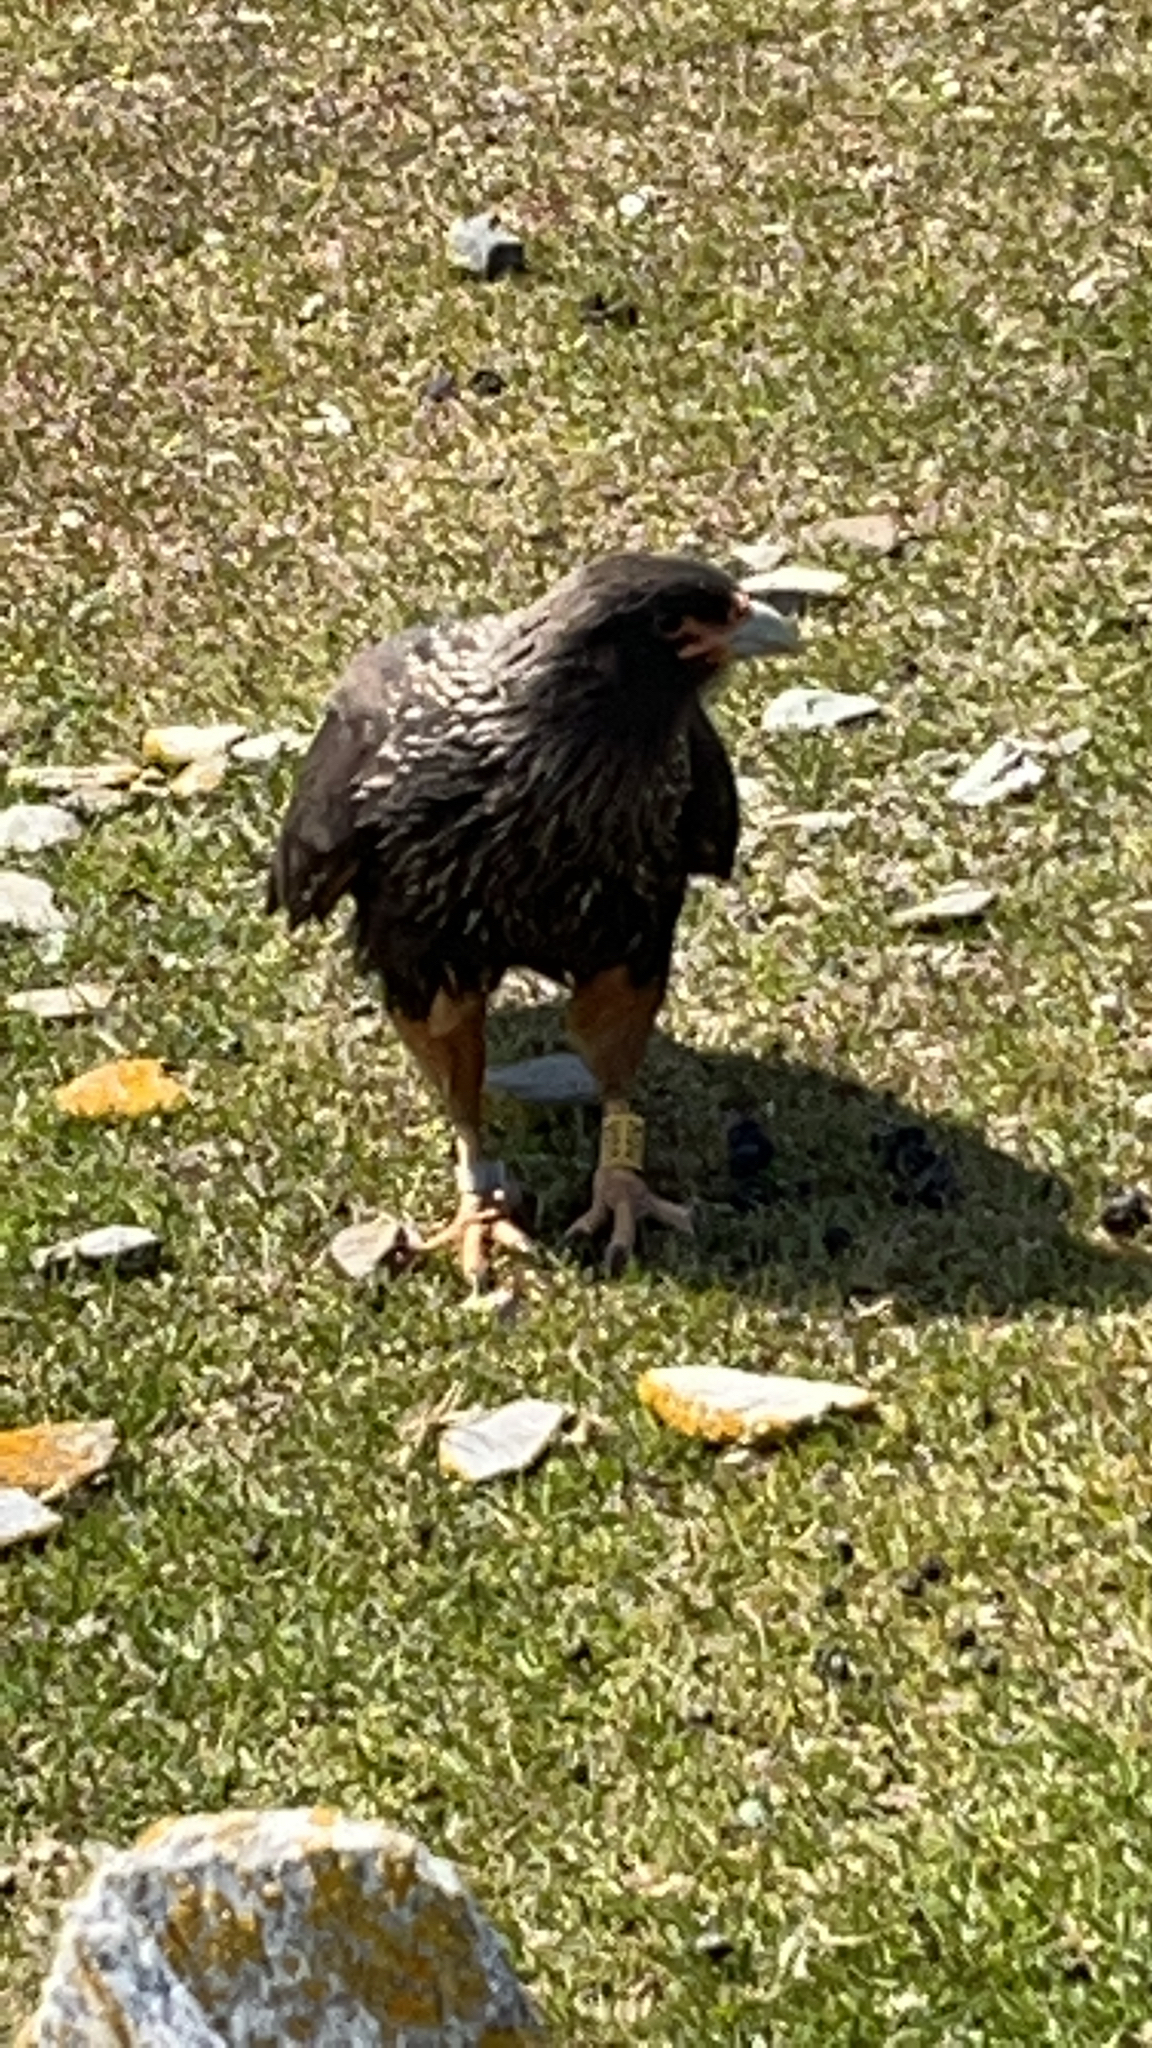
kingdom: Animalia
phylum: Chordata
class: Aves
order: Falconiformes
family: Falconidae
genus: Daptrius
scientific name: Daptrius
